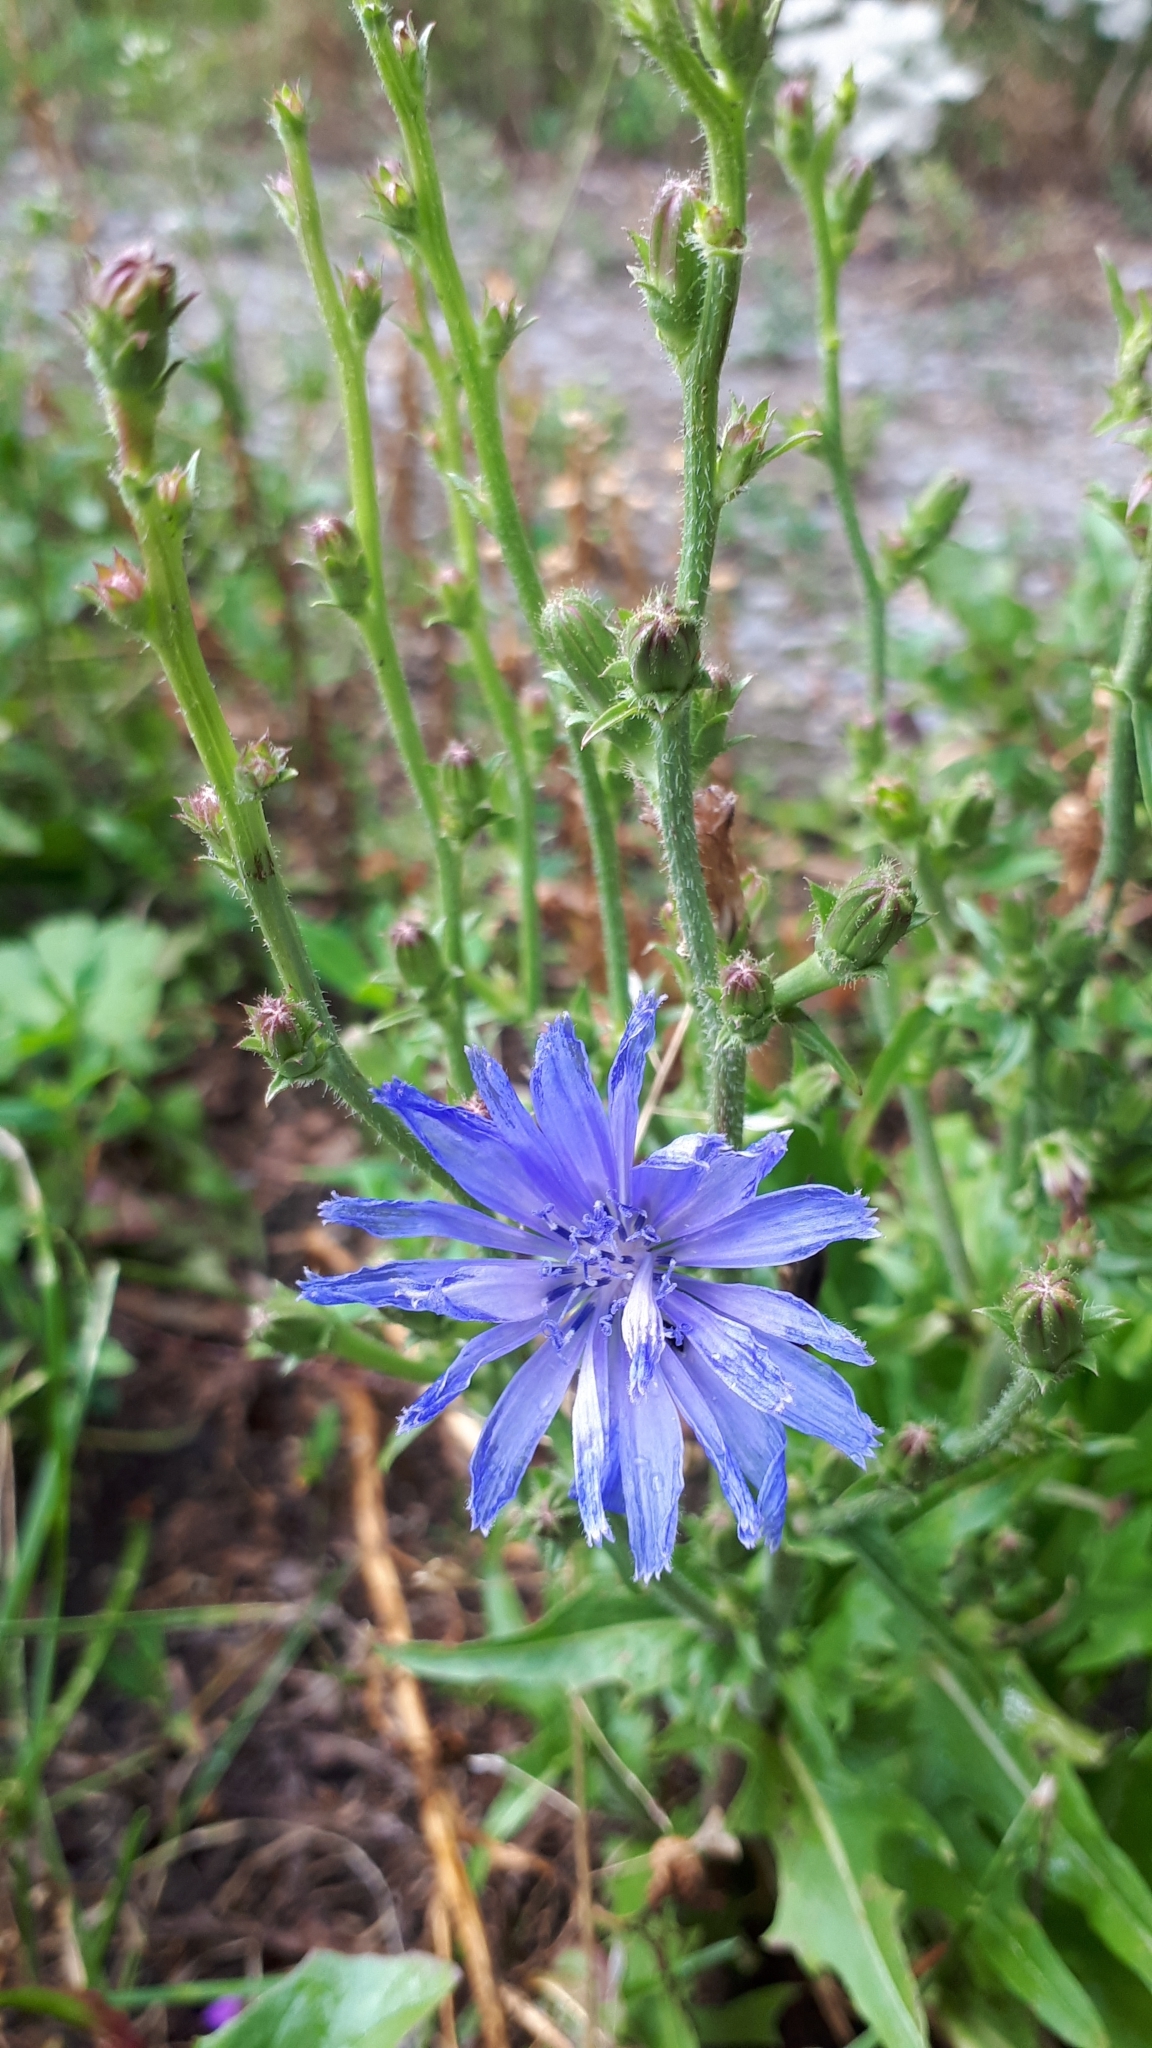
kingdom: Plantae
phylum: Tracheophyta
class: Magnoliopsida
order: Asterales
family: Asteraceae
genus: Cichorium
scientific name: Cichorium intybus
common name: Chicory
